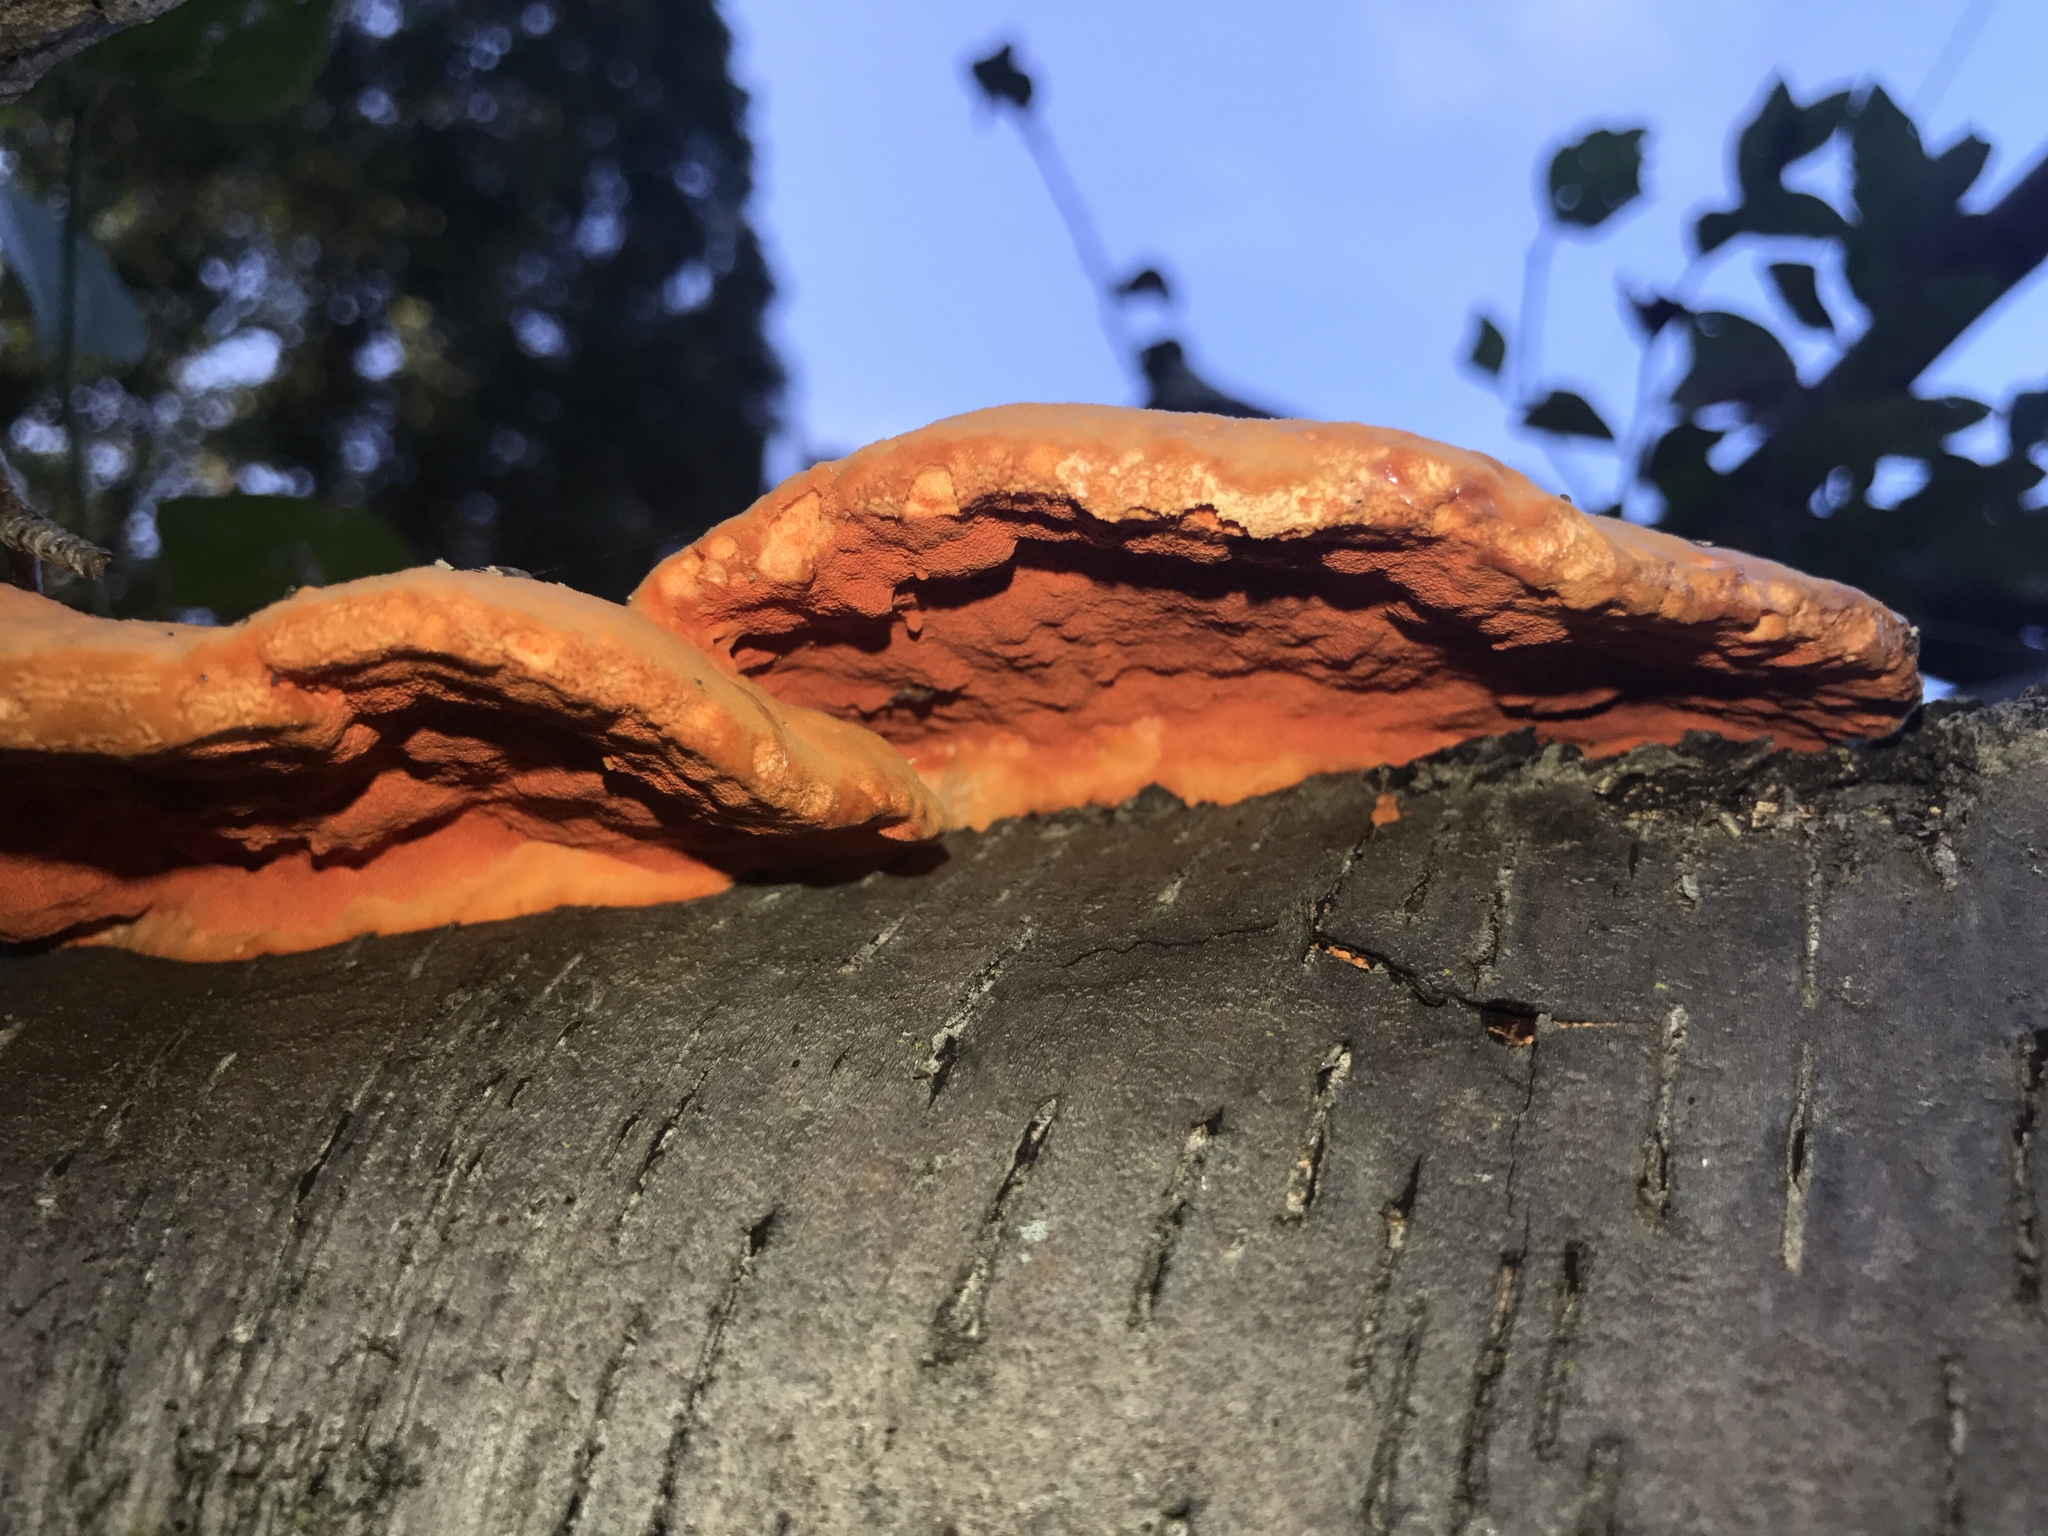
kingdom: Fungi
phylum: Basidiomycota
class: Agaricomycetes
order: Polyporales
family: Polyporaceae
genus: Trametes
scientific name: Trametes cinnabarina
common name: Northern cinnabar polypore
